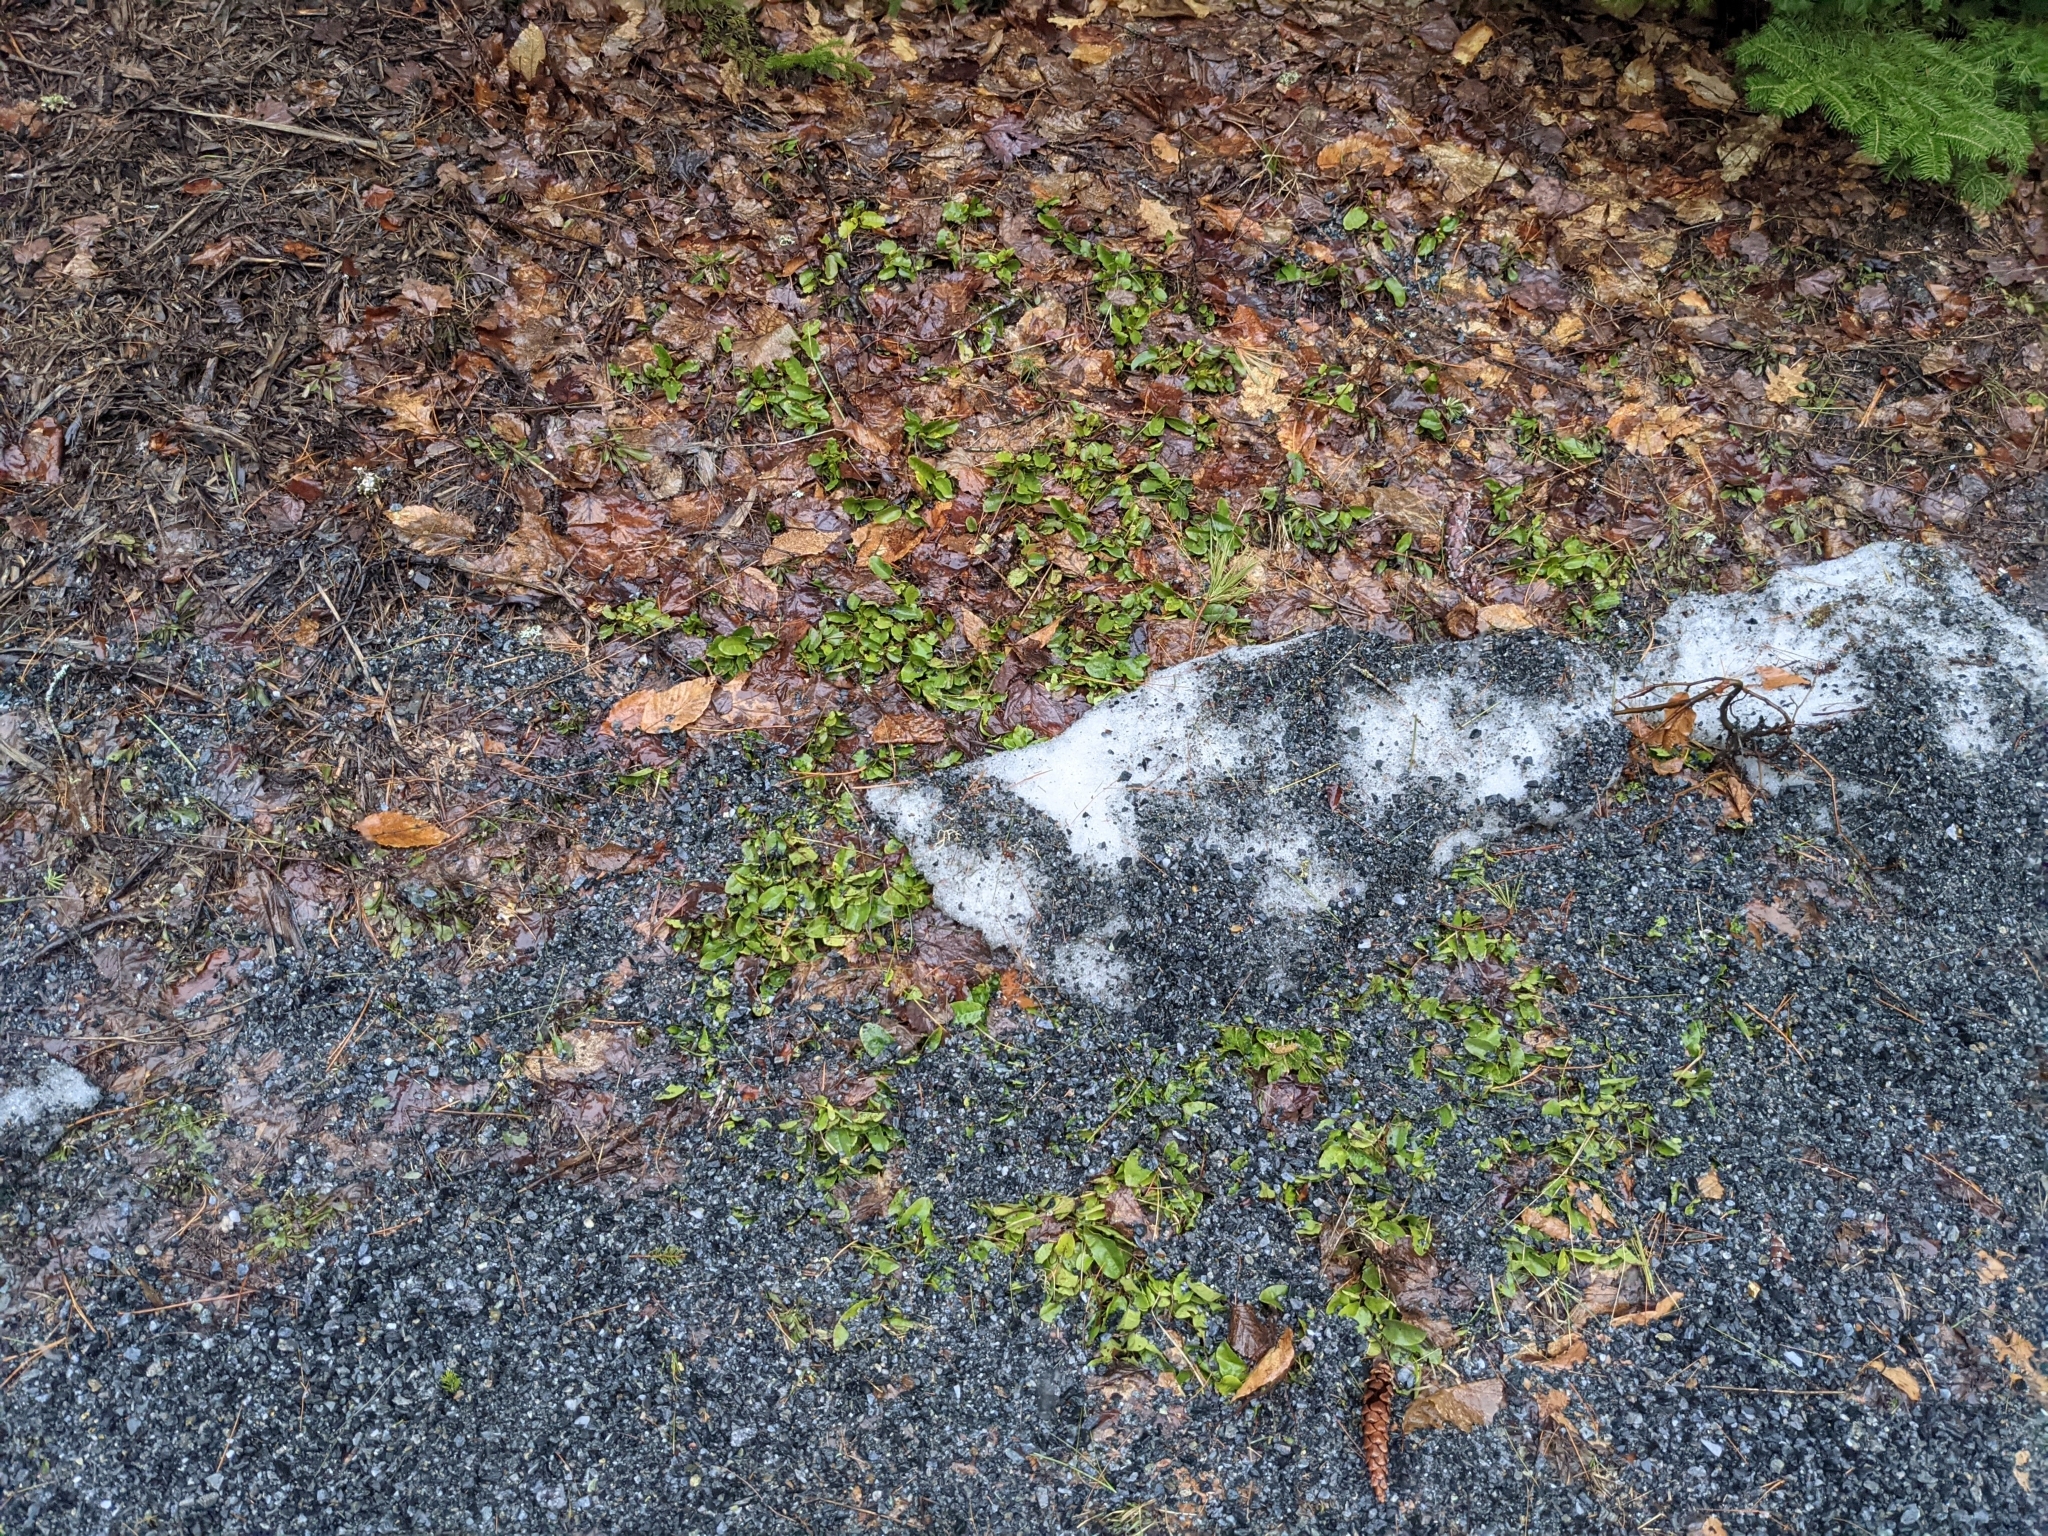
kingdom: Plantae
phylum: Tracheophyta
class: Magnoliopsida
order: Ericales
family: Ericaceae
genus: Epigaea
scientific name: Epigaea repens
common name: Gravelroot
